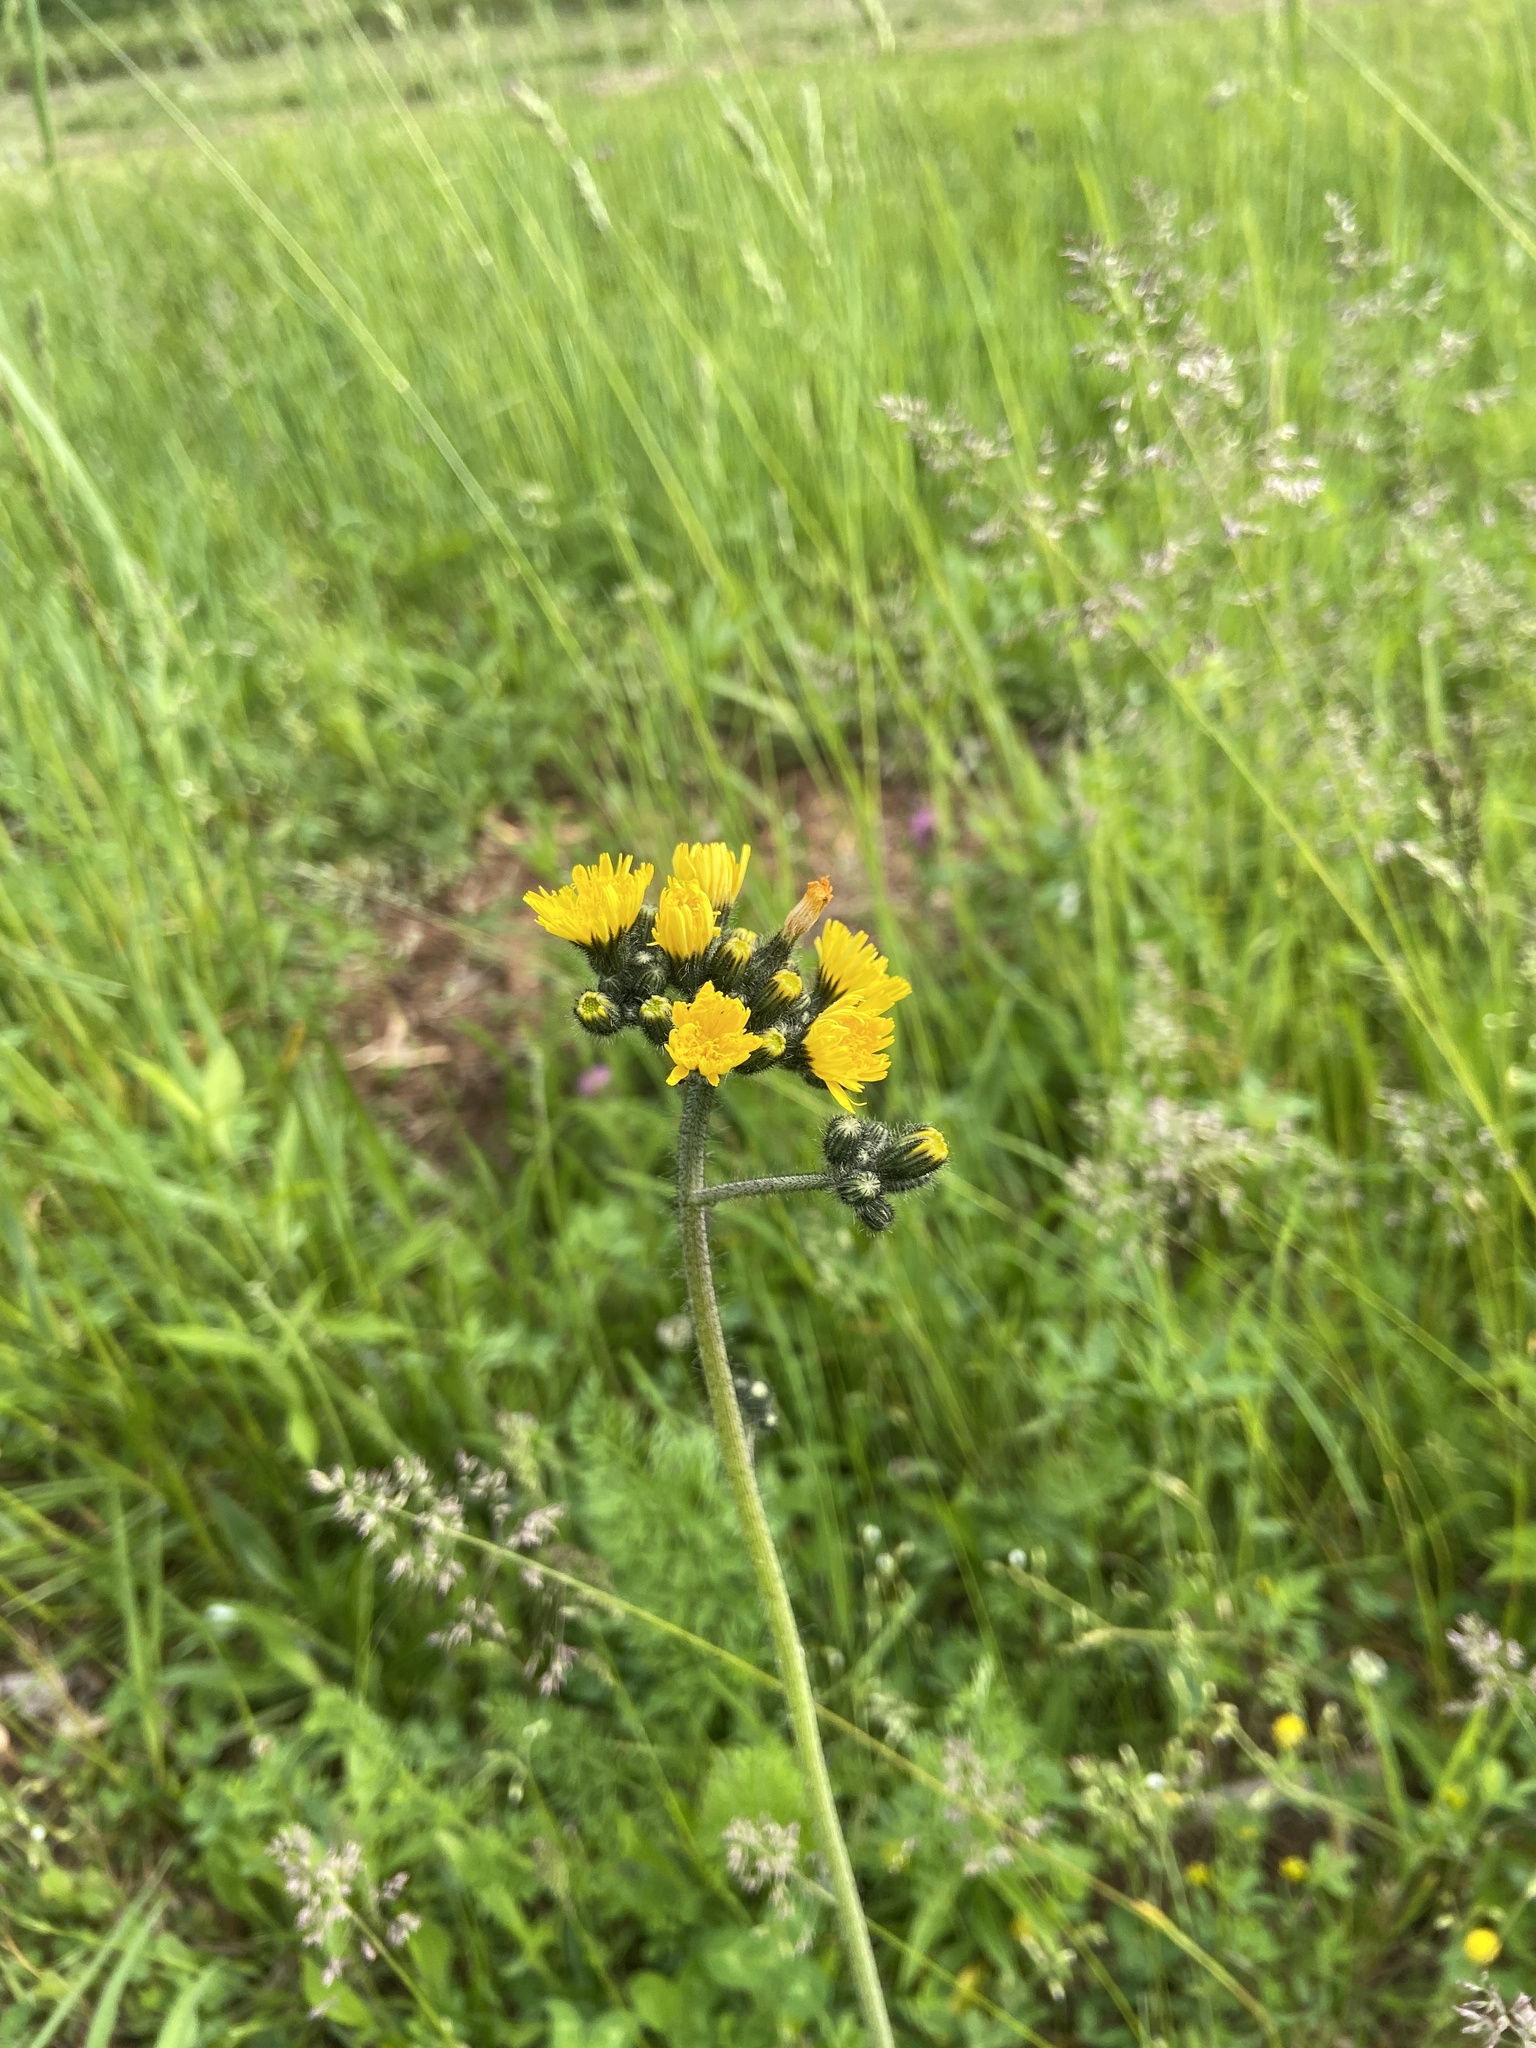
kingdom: Plantae
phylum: Tracheophyta
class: Magnoliopsida
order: Asterales
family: Asteraceae
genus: Pilosella
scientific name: Pilosella caespitosa
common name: Yellow fox-and-cubs
